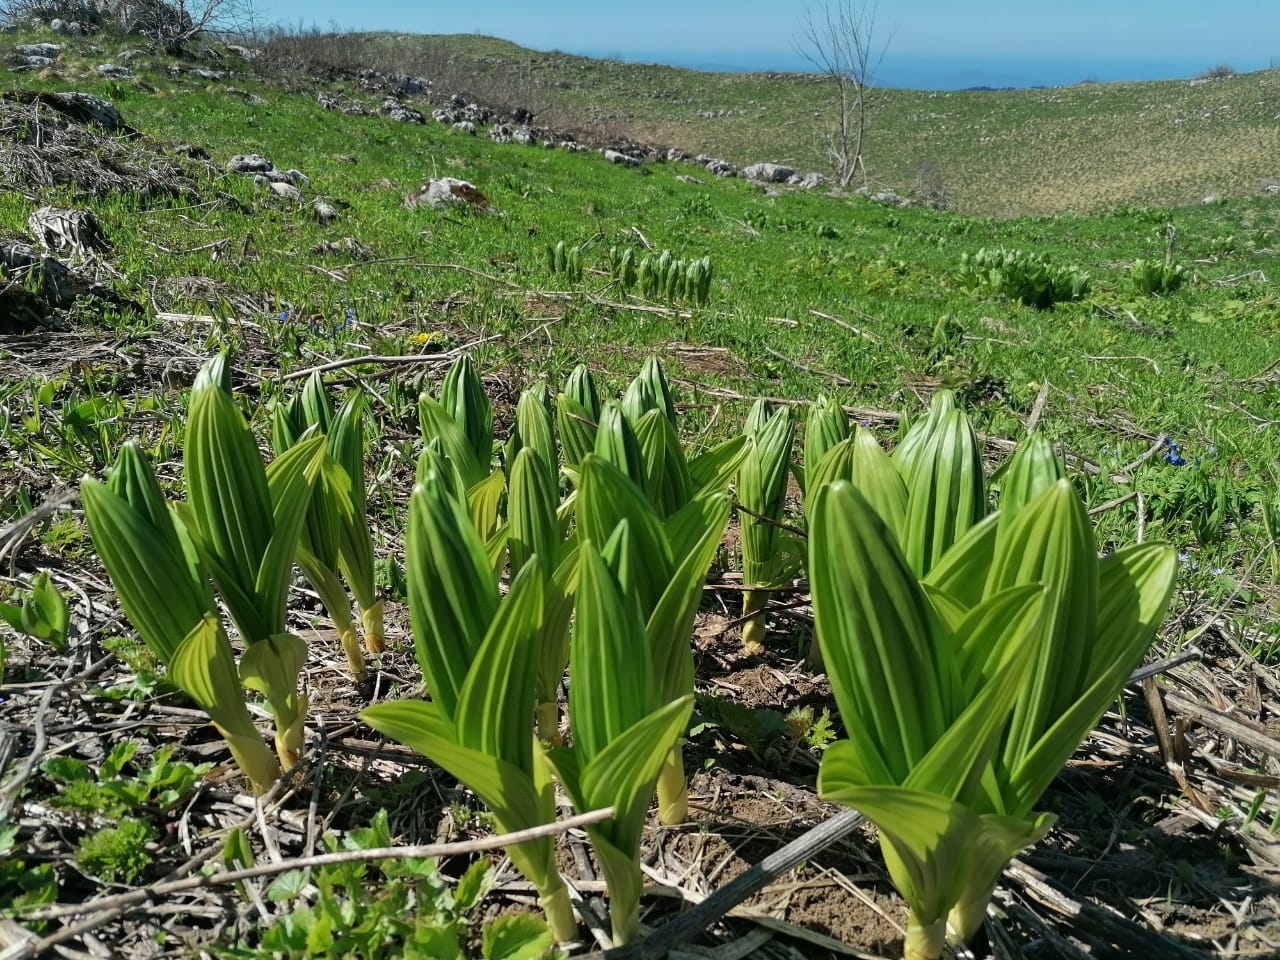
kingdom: Plantae
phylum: Tracheophyta
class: Liliopsida
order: Liliales
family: Melanthiaceae
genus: Veratrum
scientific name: Veratrum lobelianum
